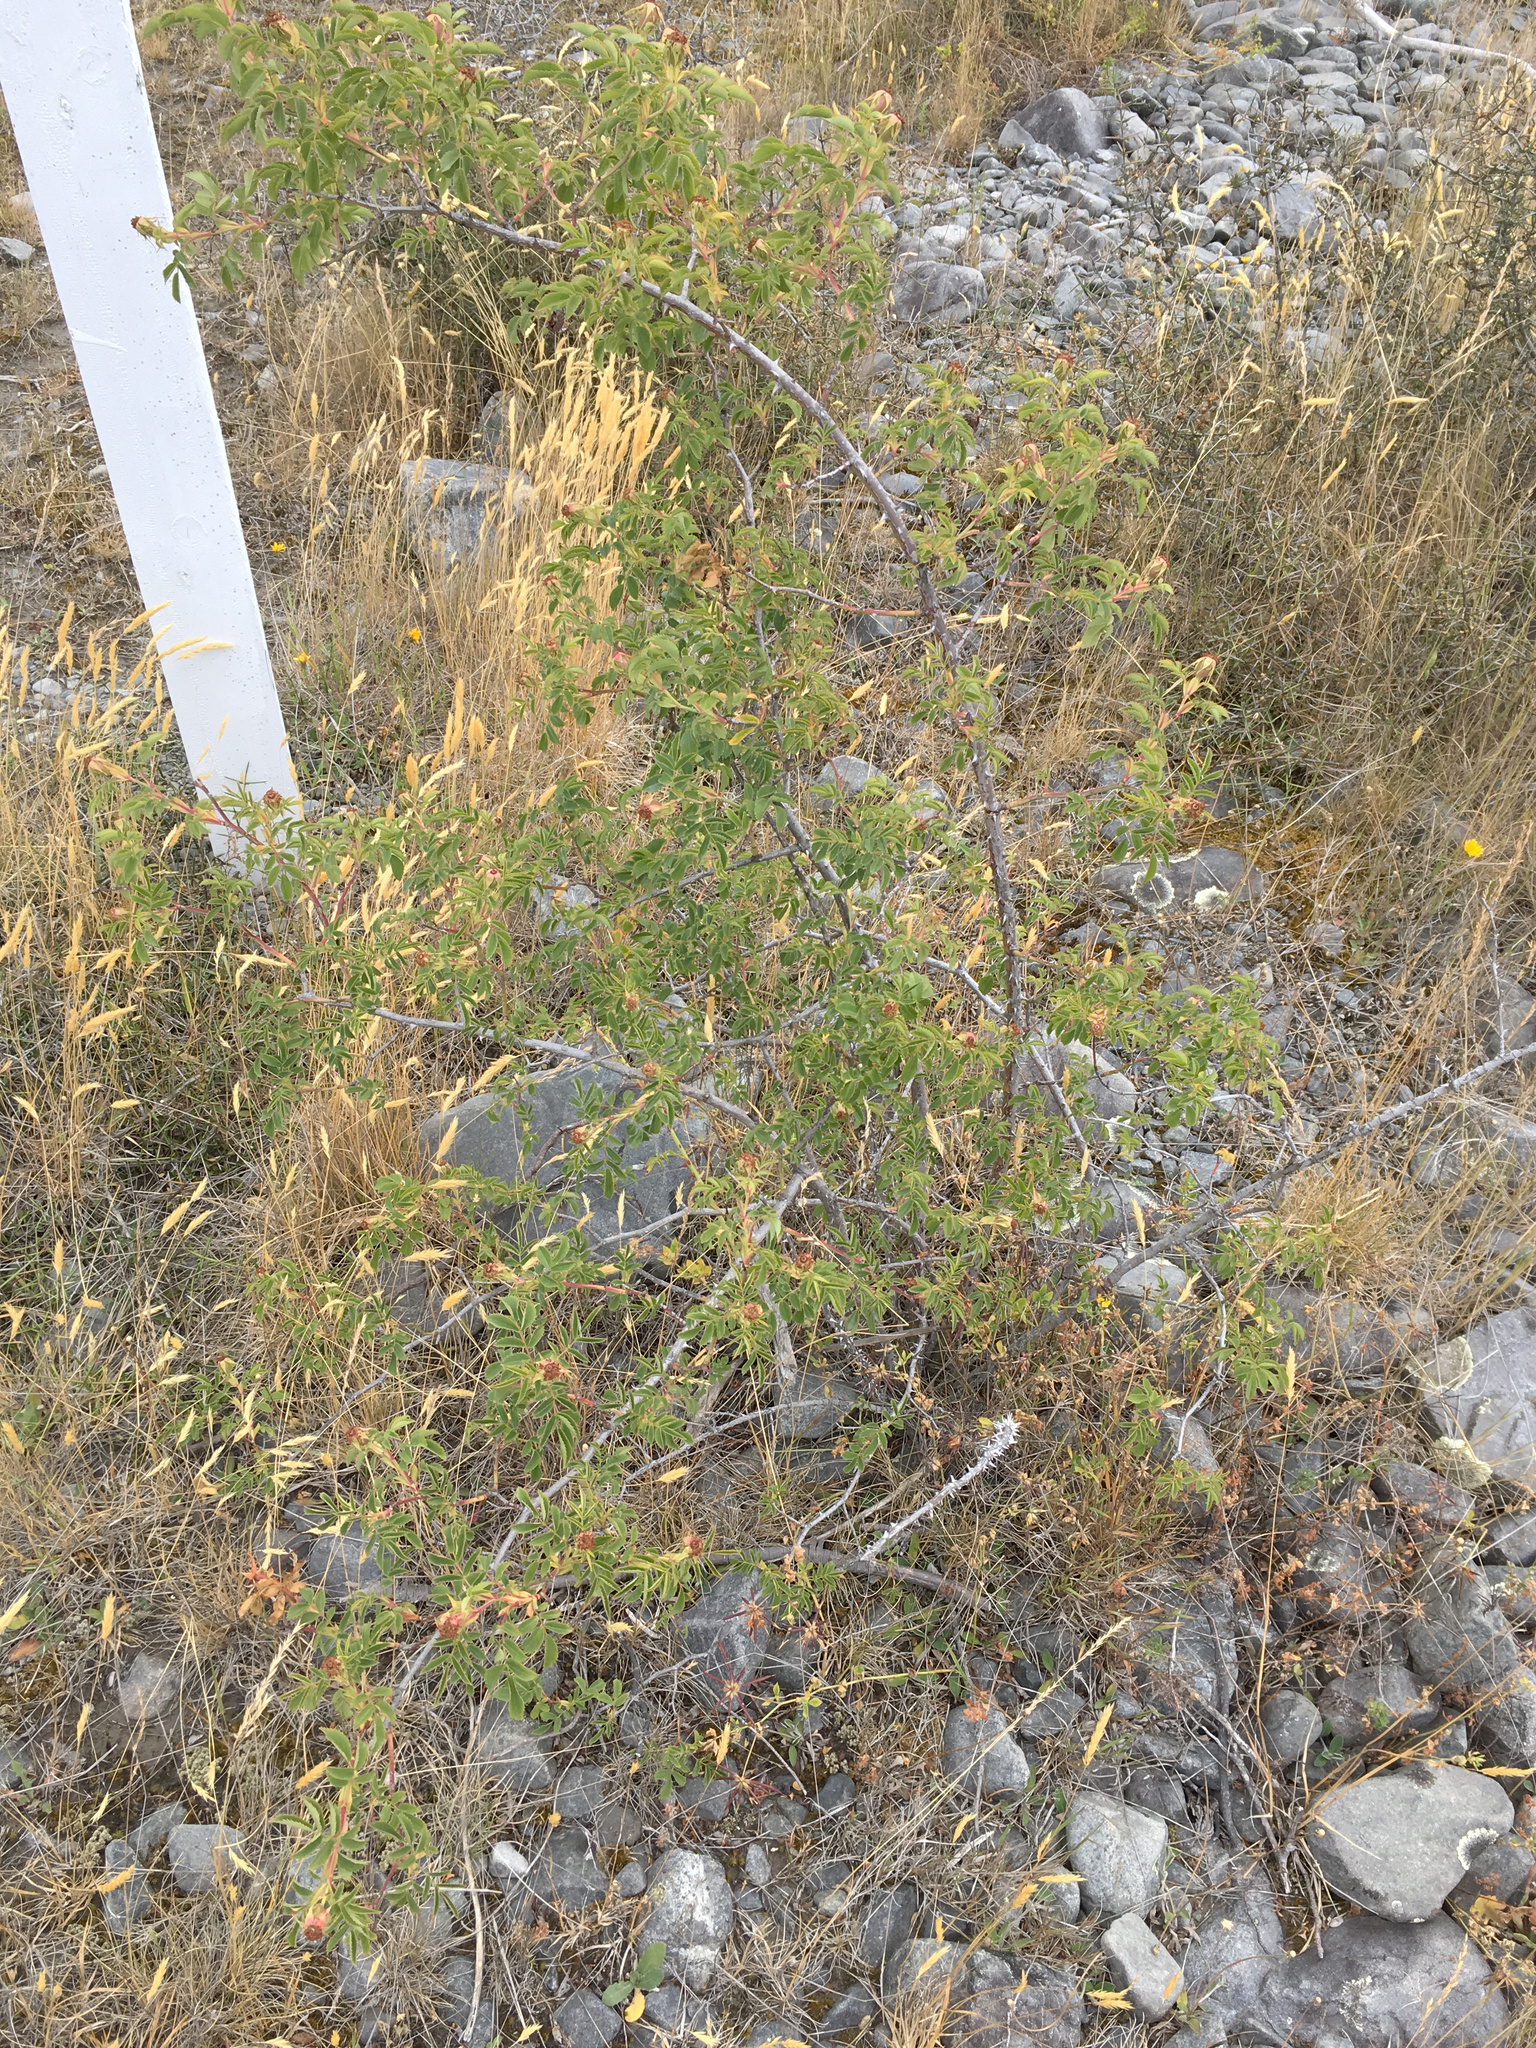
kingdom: Plantae
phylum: Tracheophyta
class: Magnoliopsida
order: Rosales
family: Rosaceae
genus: Rosa
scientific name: Rosa rubiginosa
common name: Sweet-briar
